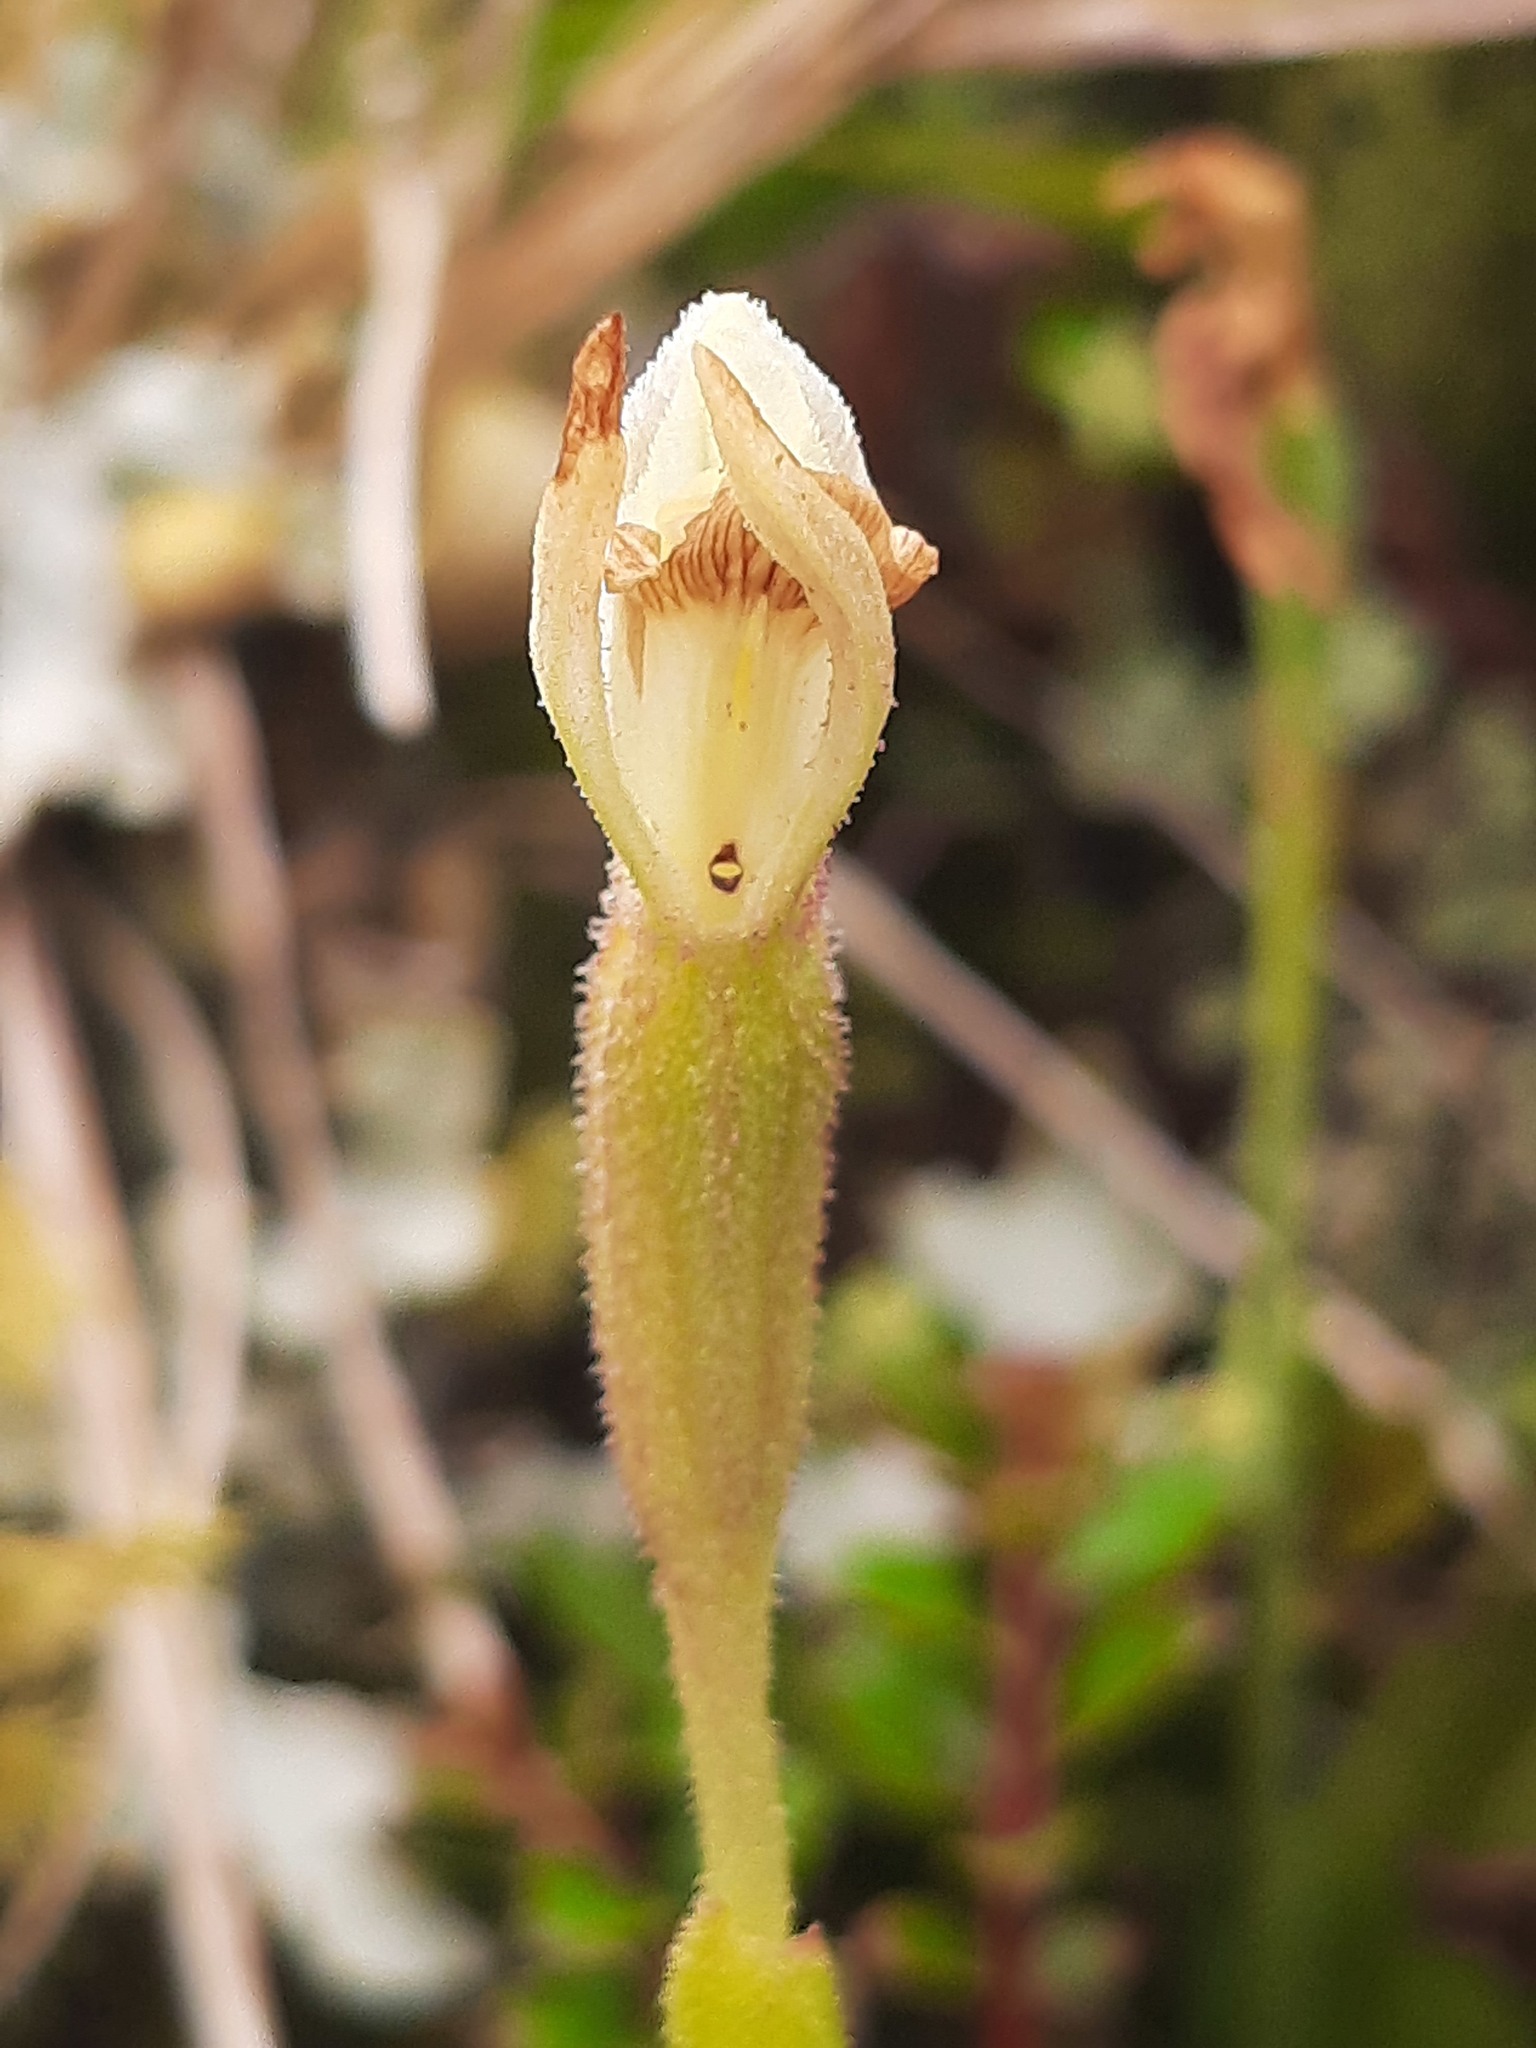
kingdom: Plantae
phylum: Tracheophyta
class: Liliopsida
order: Asparagales
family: Orchidaceae
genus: Aporostylis
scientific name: Aporostylis bifolia
